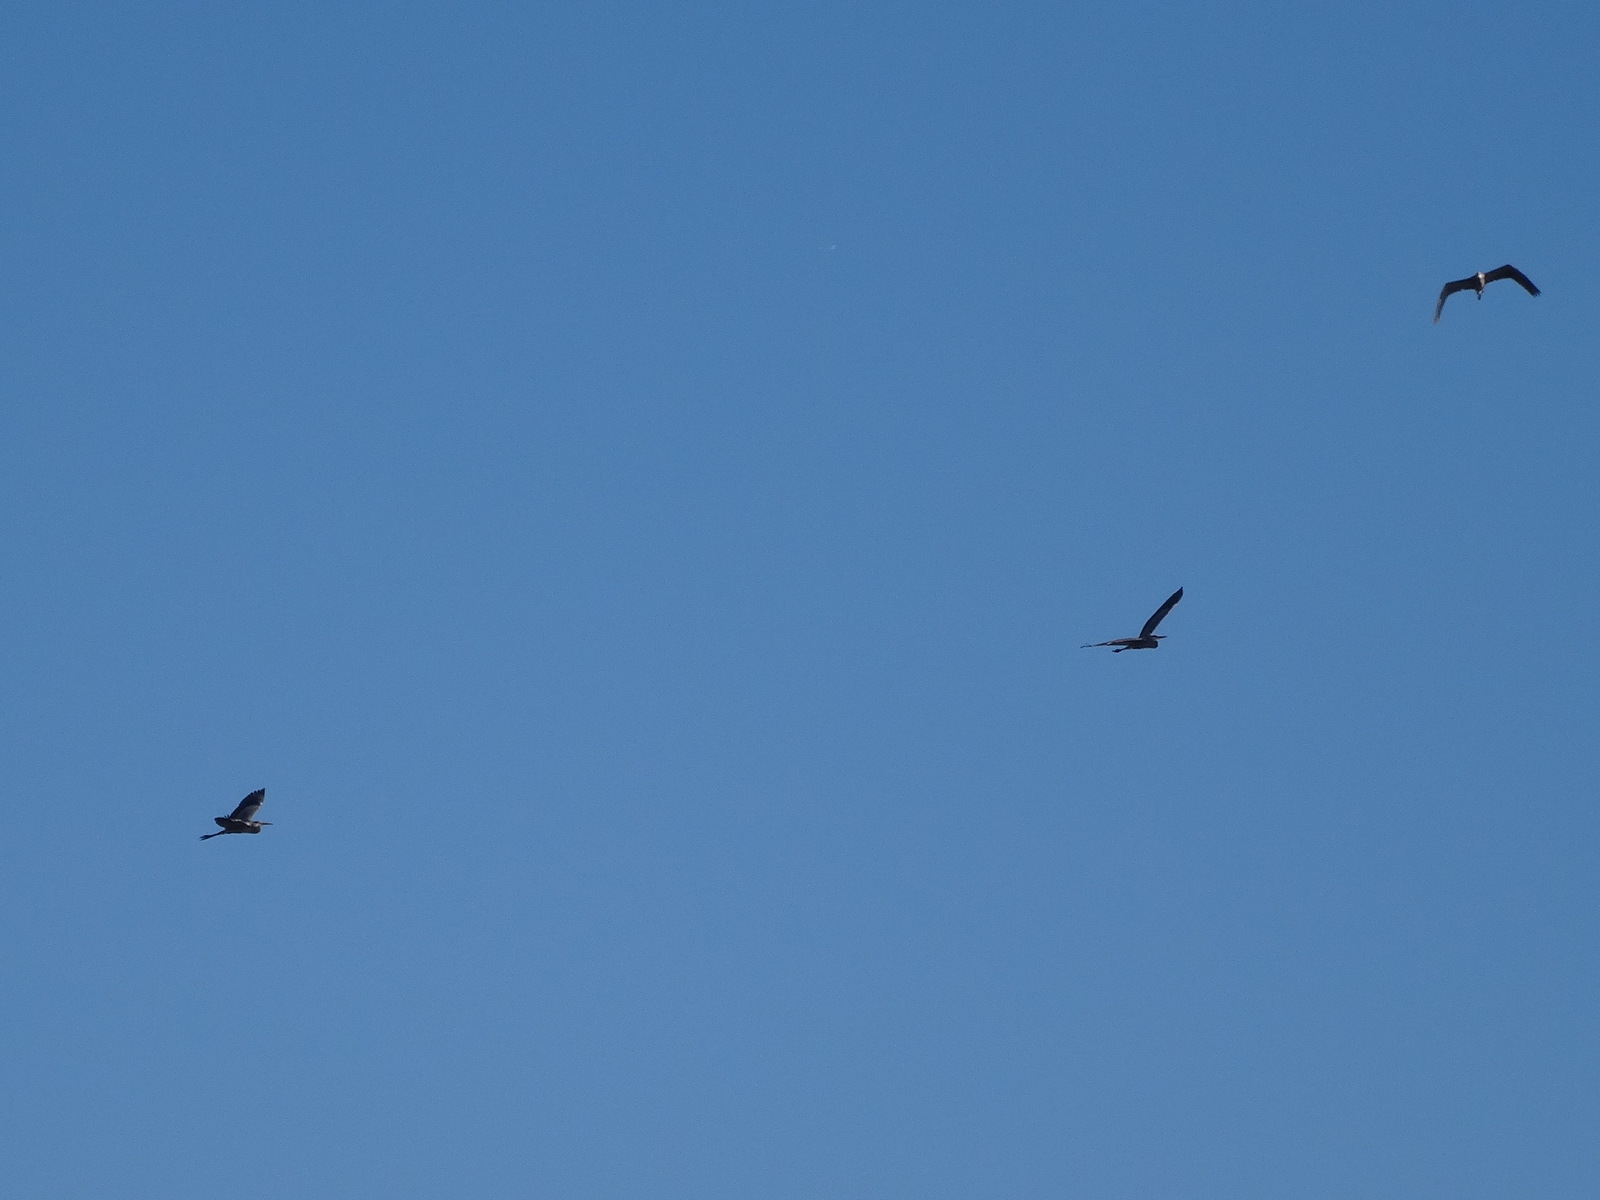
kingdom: Animalia
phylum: Chordata
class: Aves
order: Pelecaniformes
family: Ardeidae
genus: Ardea
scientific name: Ardea herodias
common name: Great blue heron
